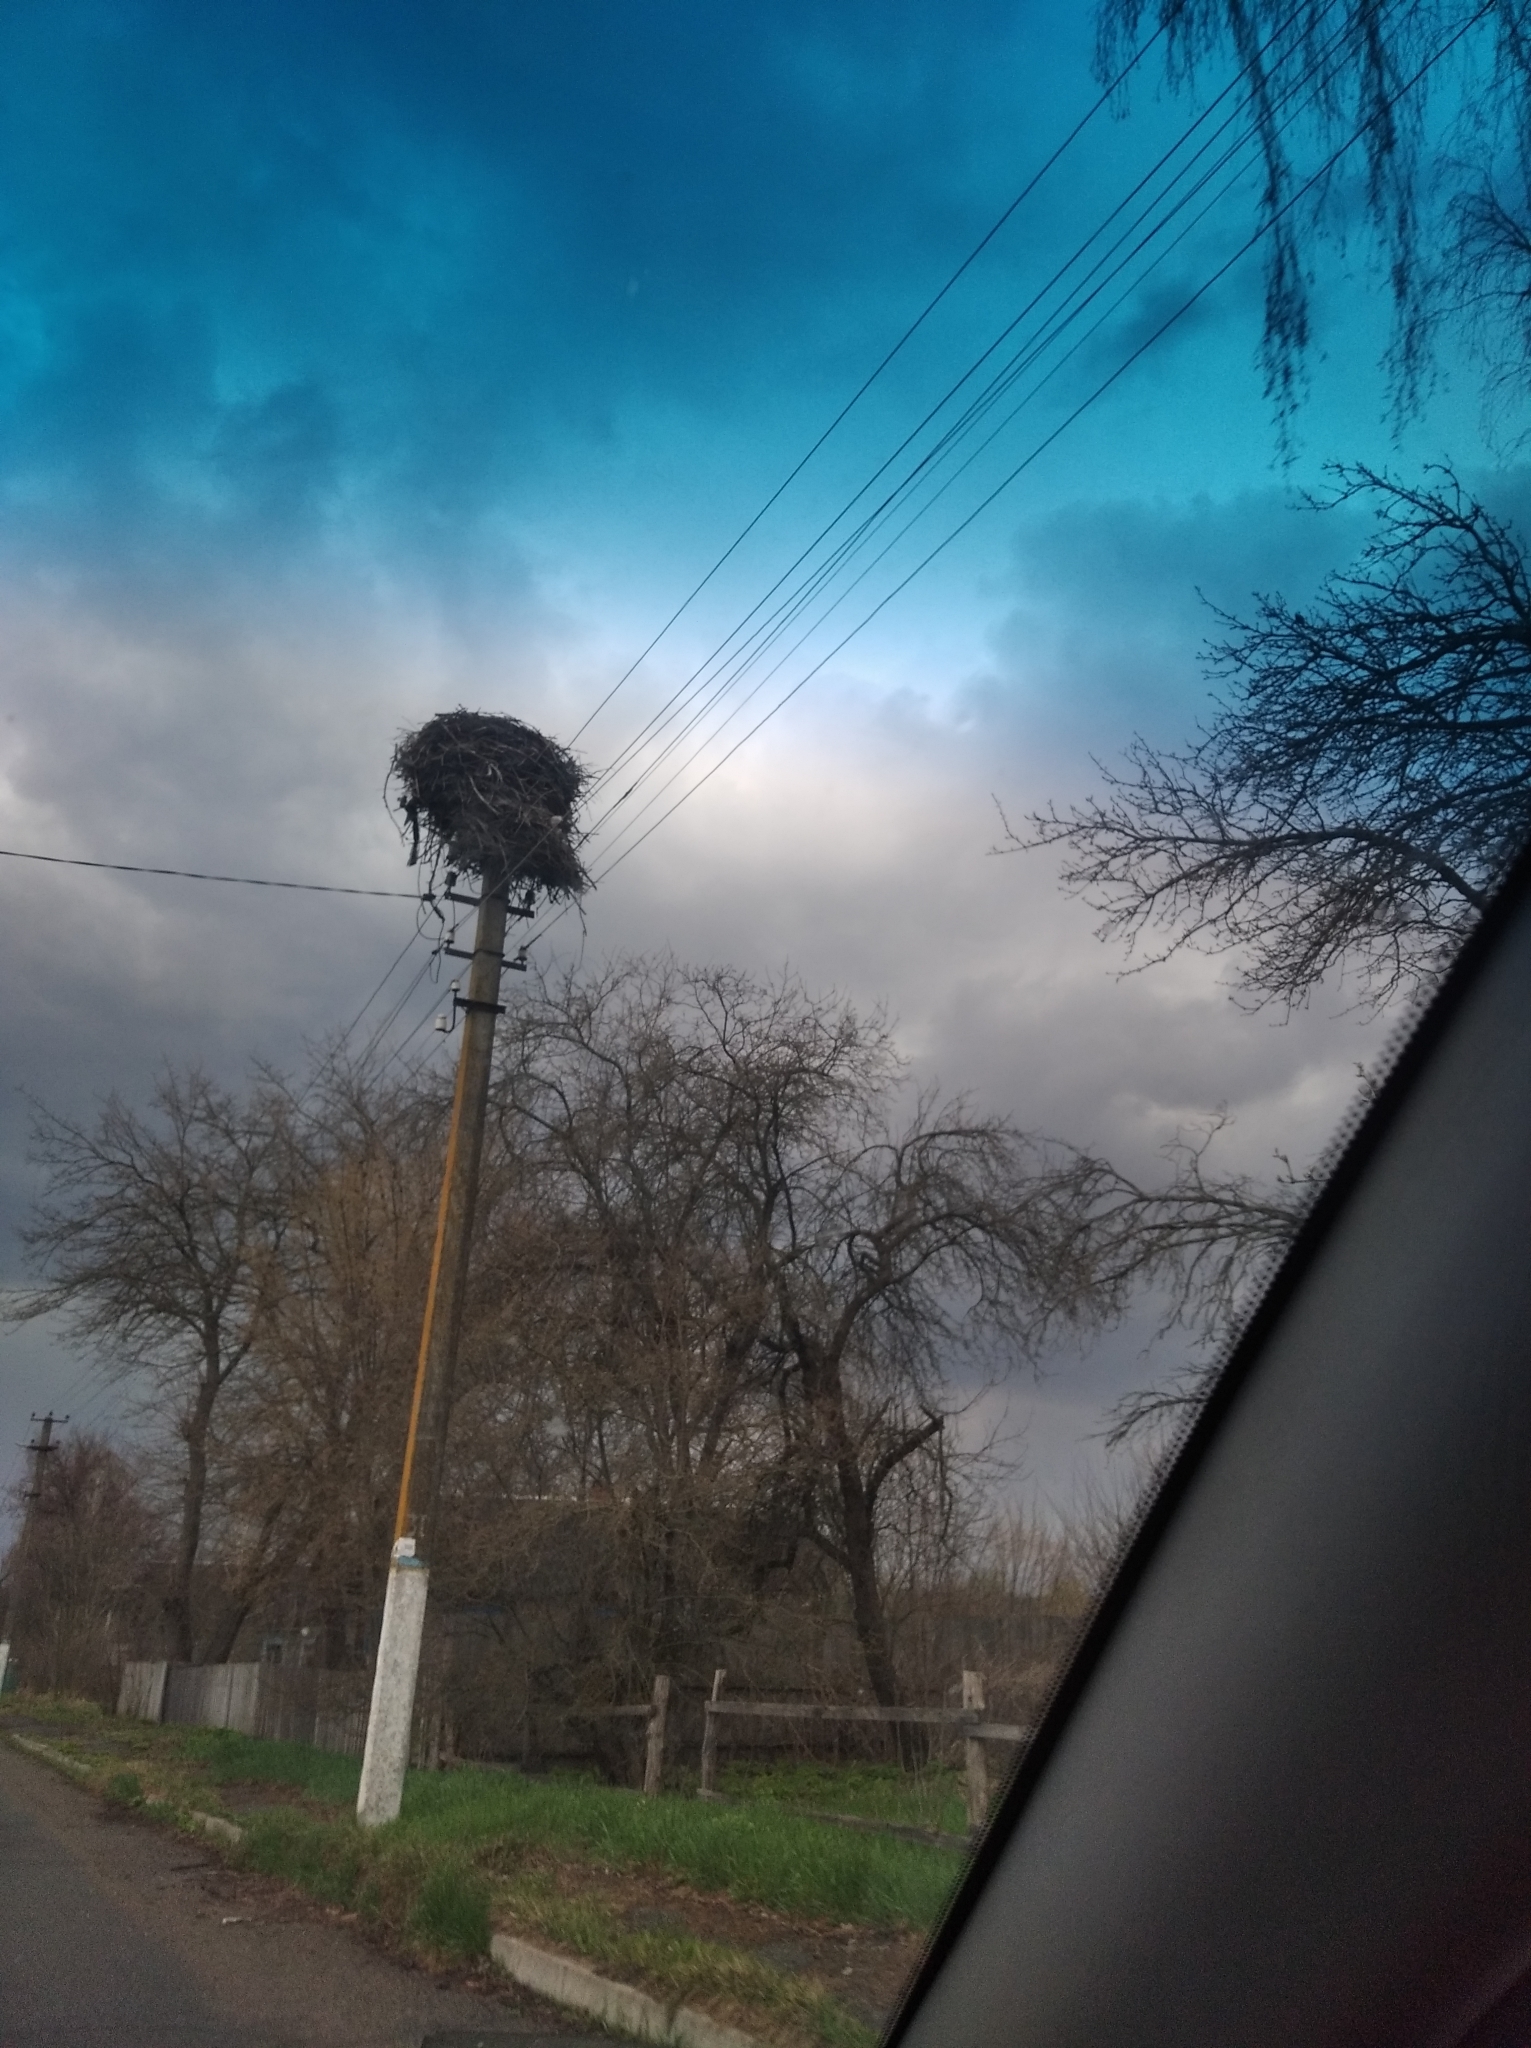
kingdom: Animalia
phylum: Chordata
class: Aves
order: Ciconiiformes
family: Ciconiidae
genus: Ciconia
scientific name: Ciconia ciconia
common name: White stork
